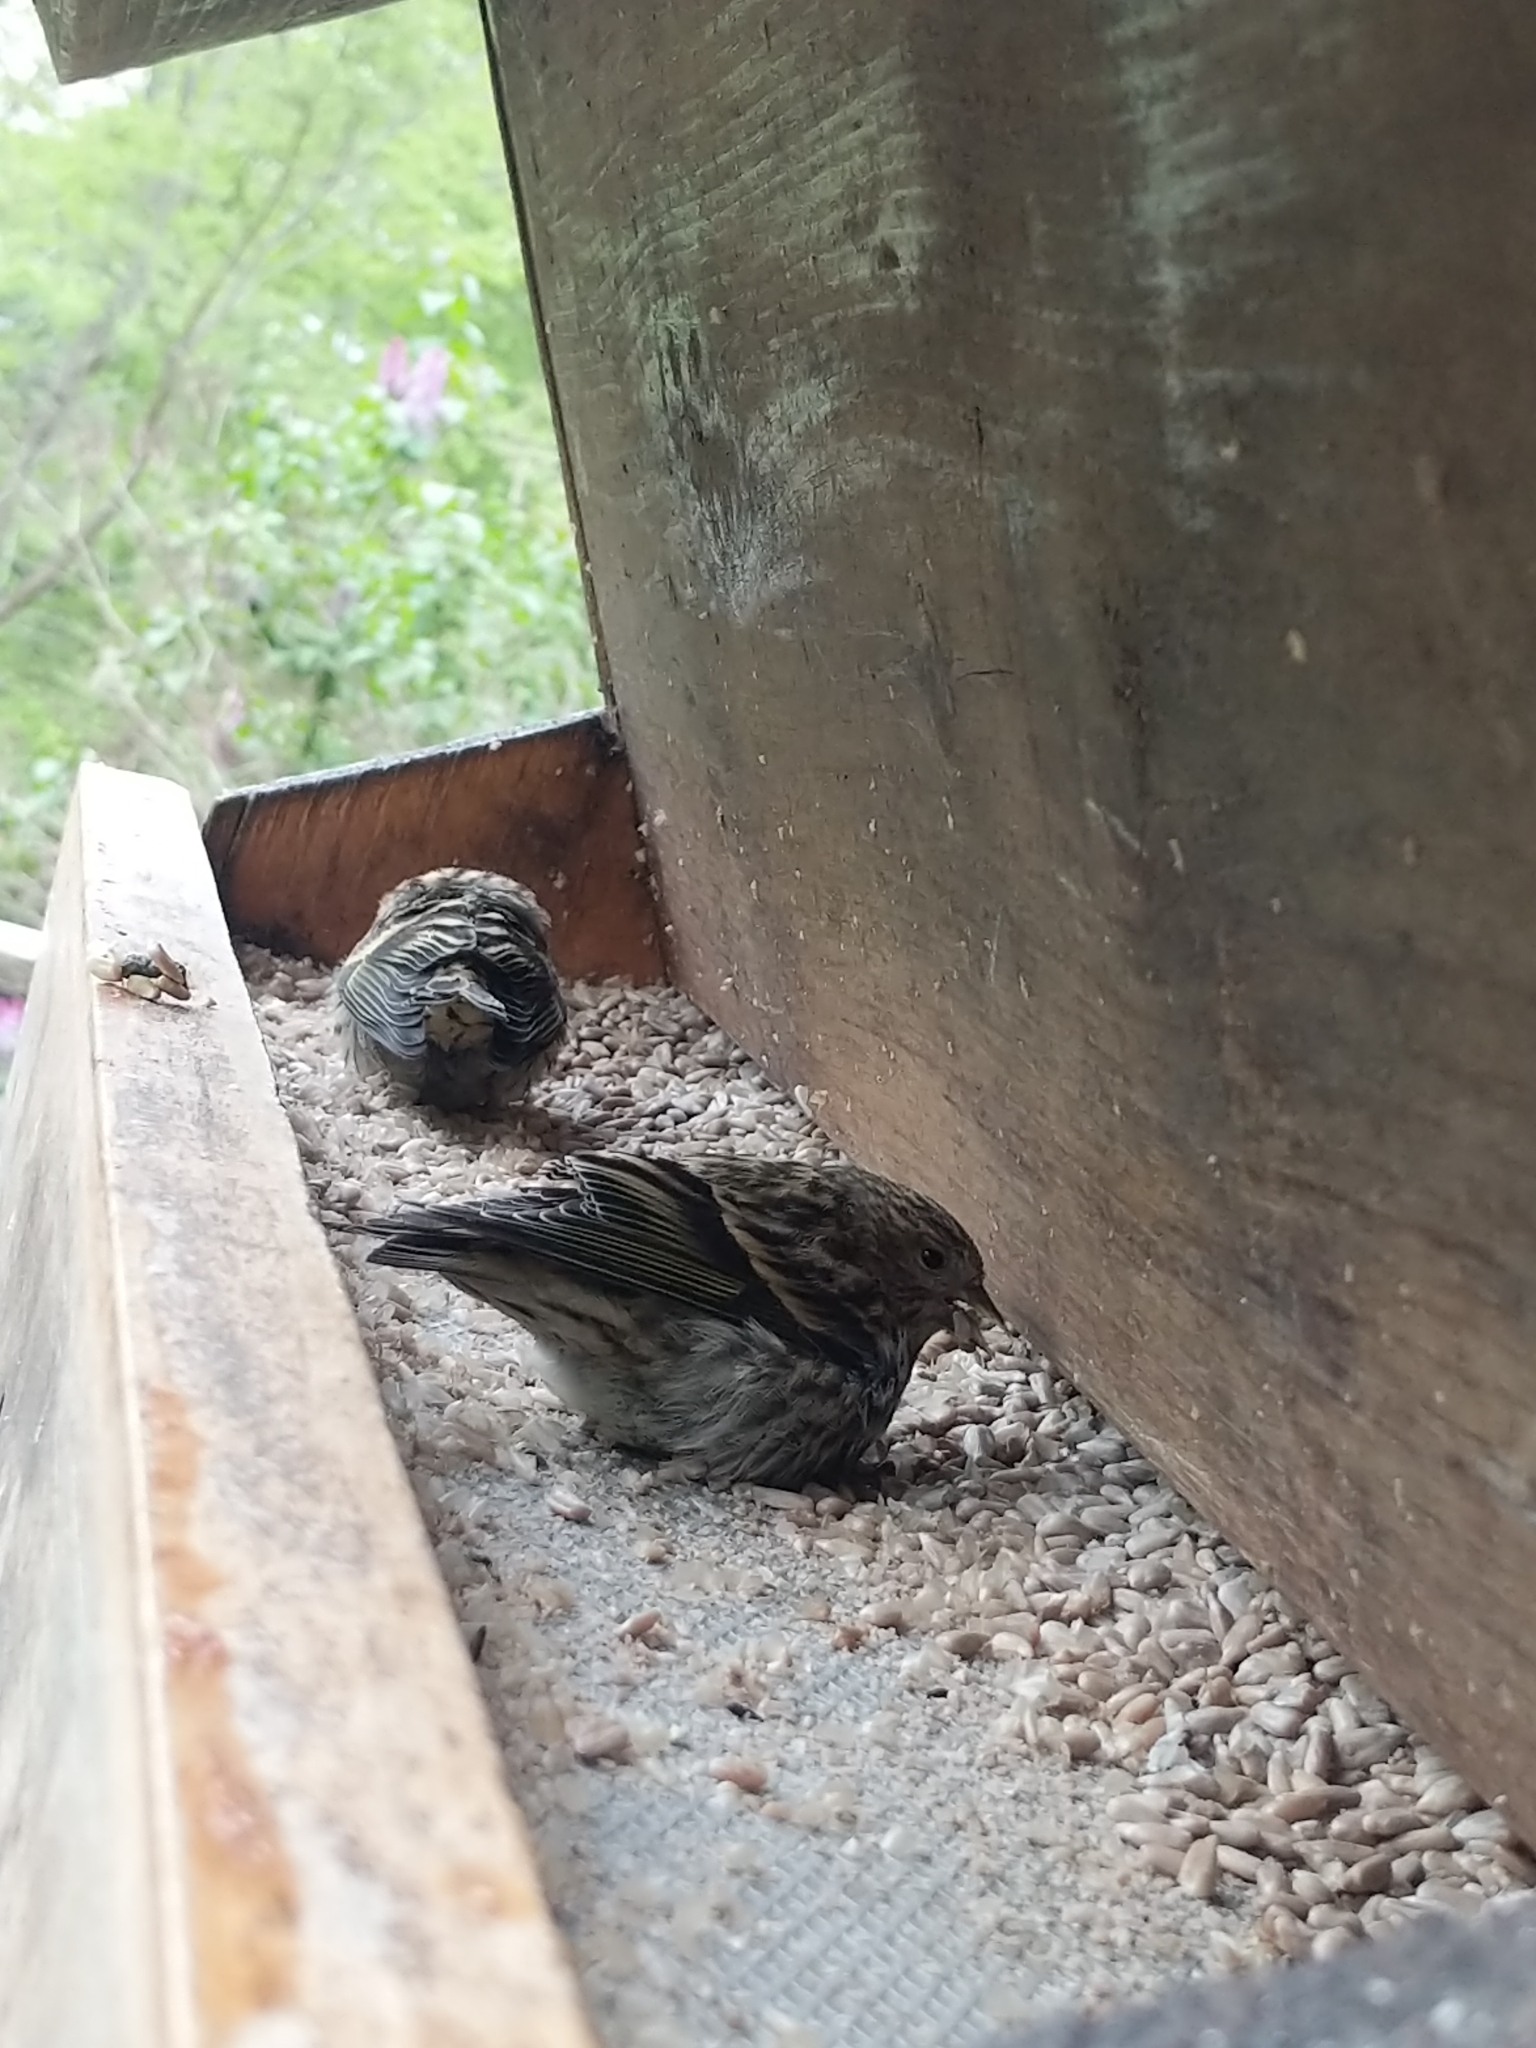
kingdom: Animalia
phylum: Chordata
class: Aves
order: Passeriformes
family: Fringillidae
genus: Spinus
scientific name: Spinus pinus
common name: Pine siskin
